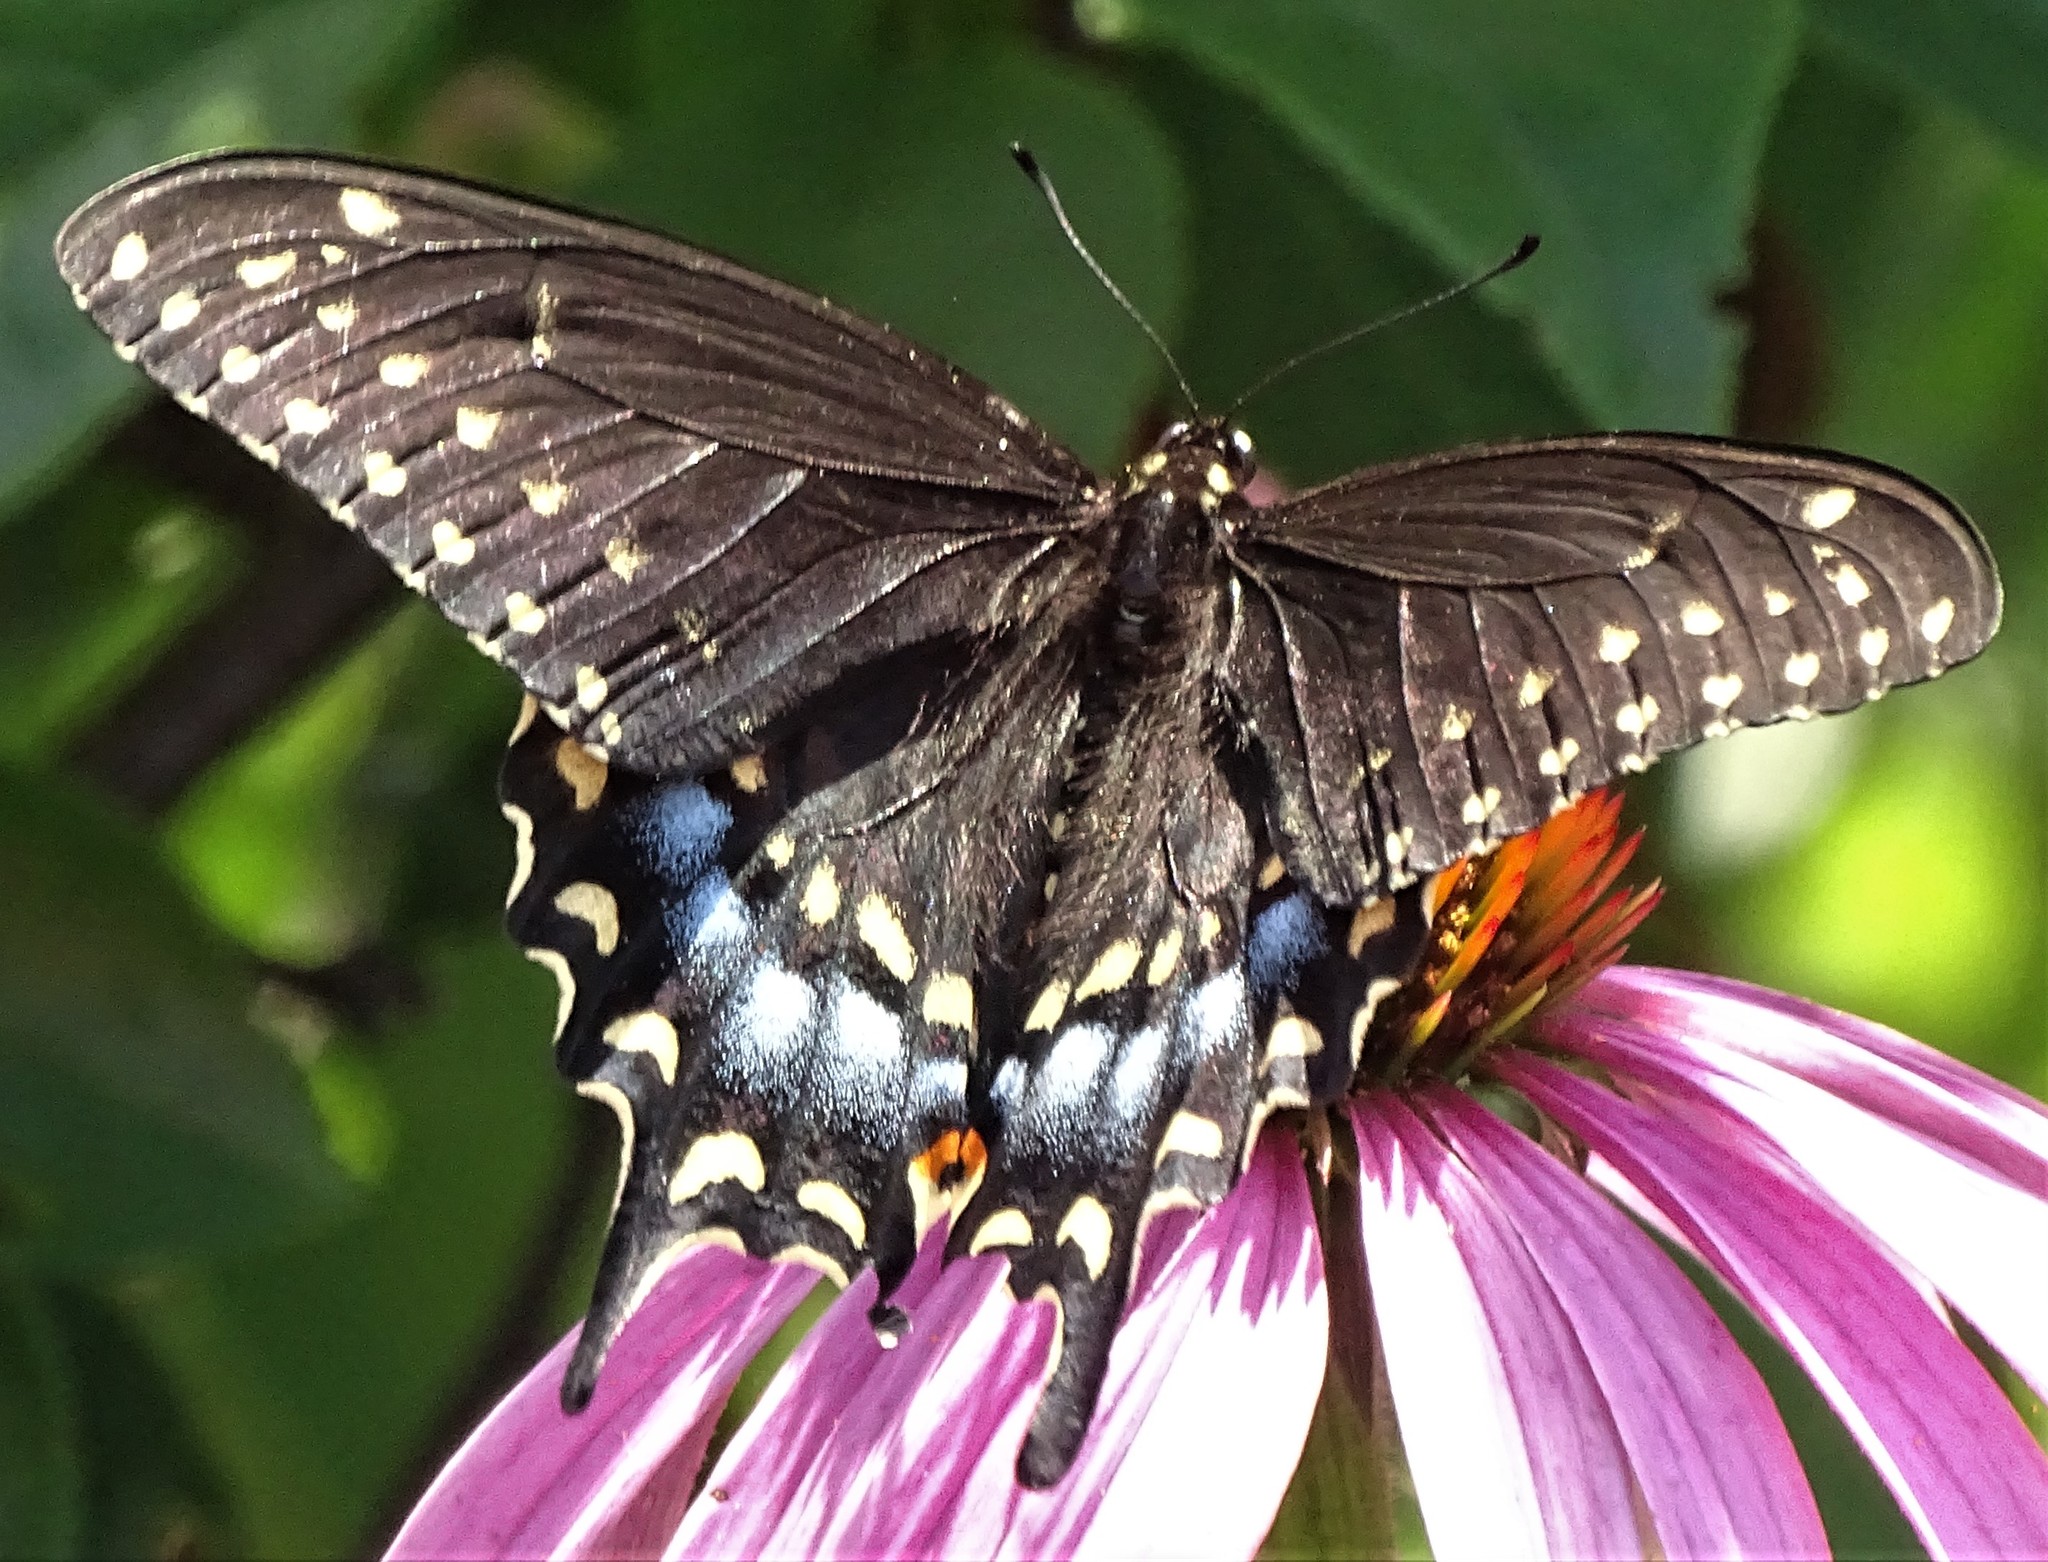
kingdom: Animalia
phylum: Arthropoda
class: Insecta
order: Lepidoptera
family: Papilionidae
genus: Papilio
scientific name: Papilio polyxenes
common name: Black swallowtail
